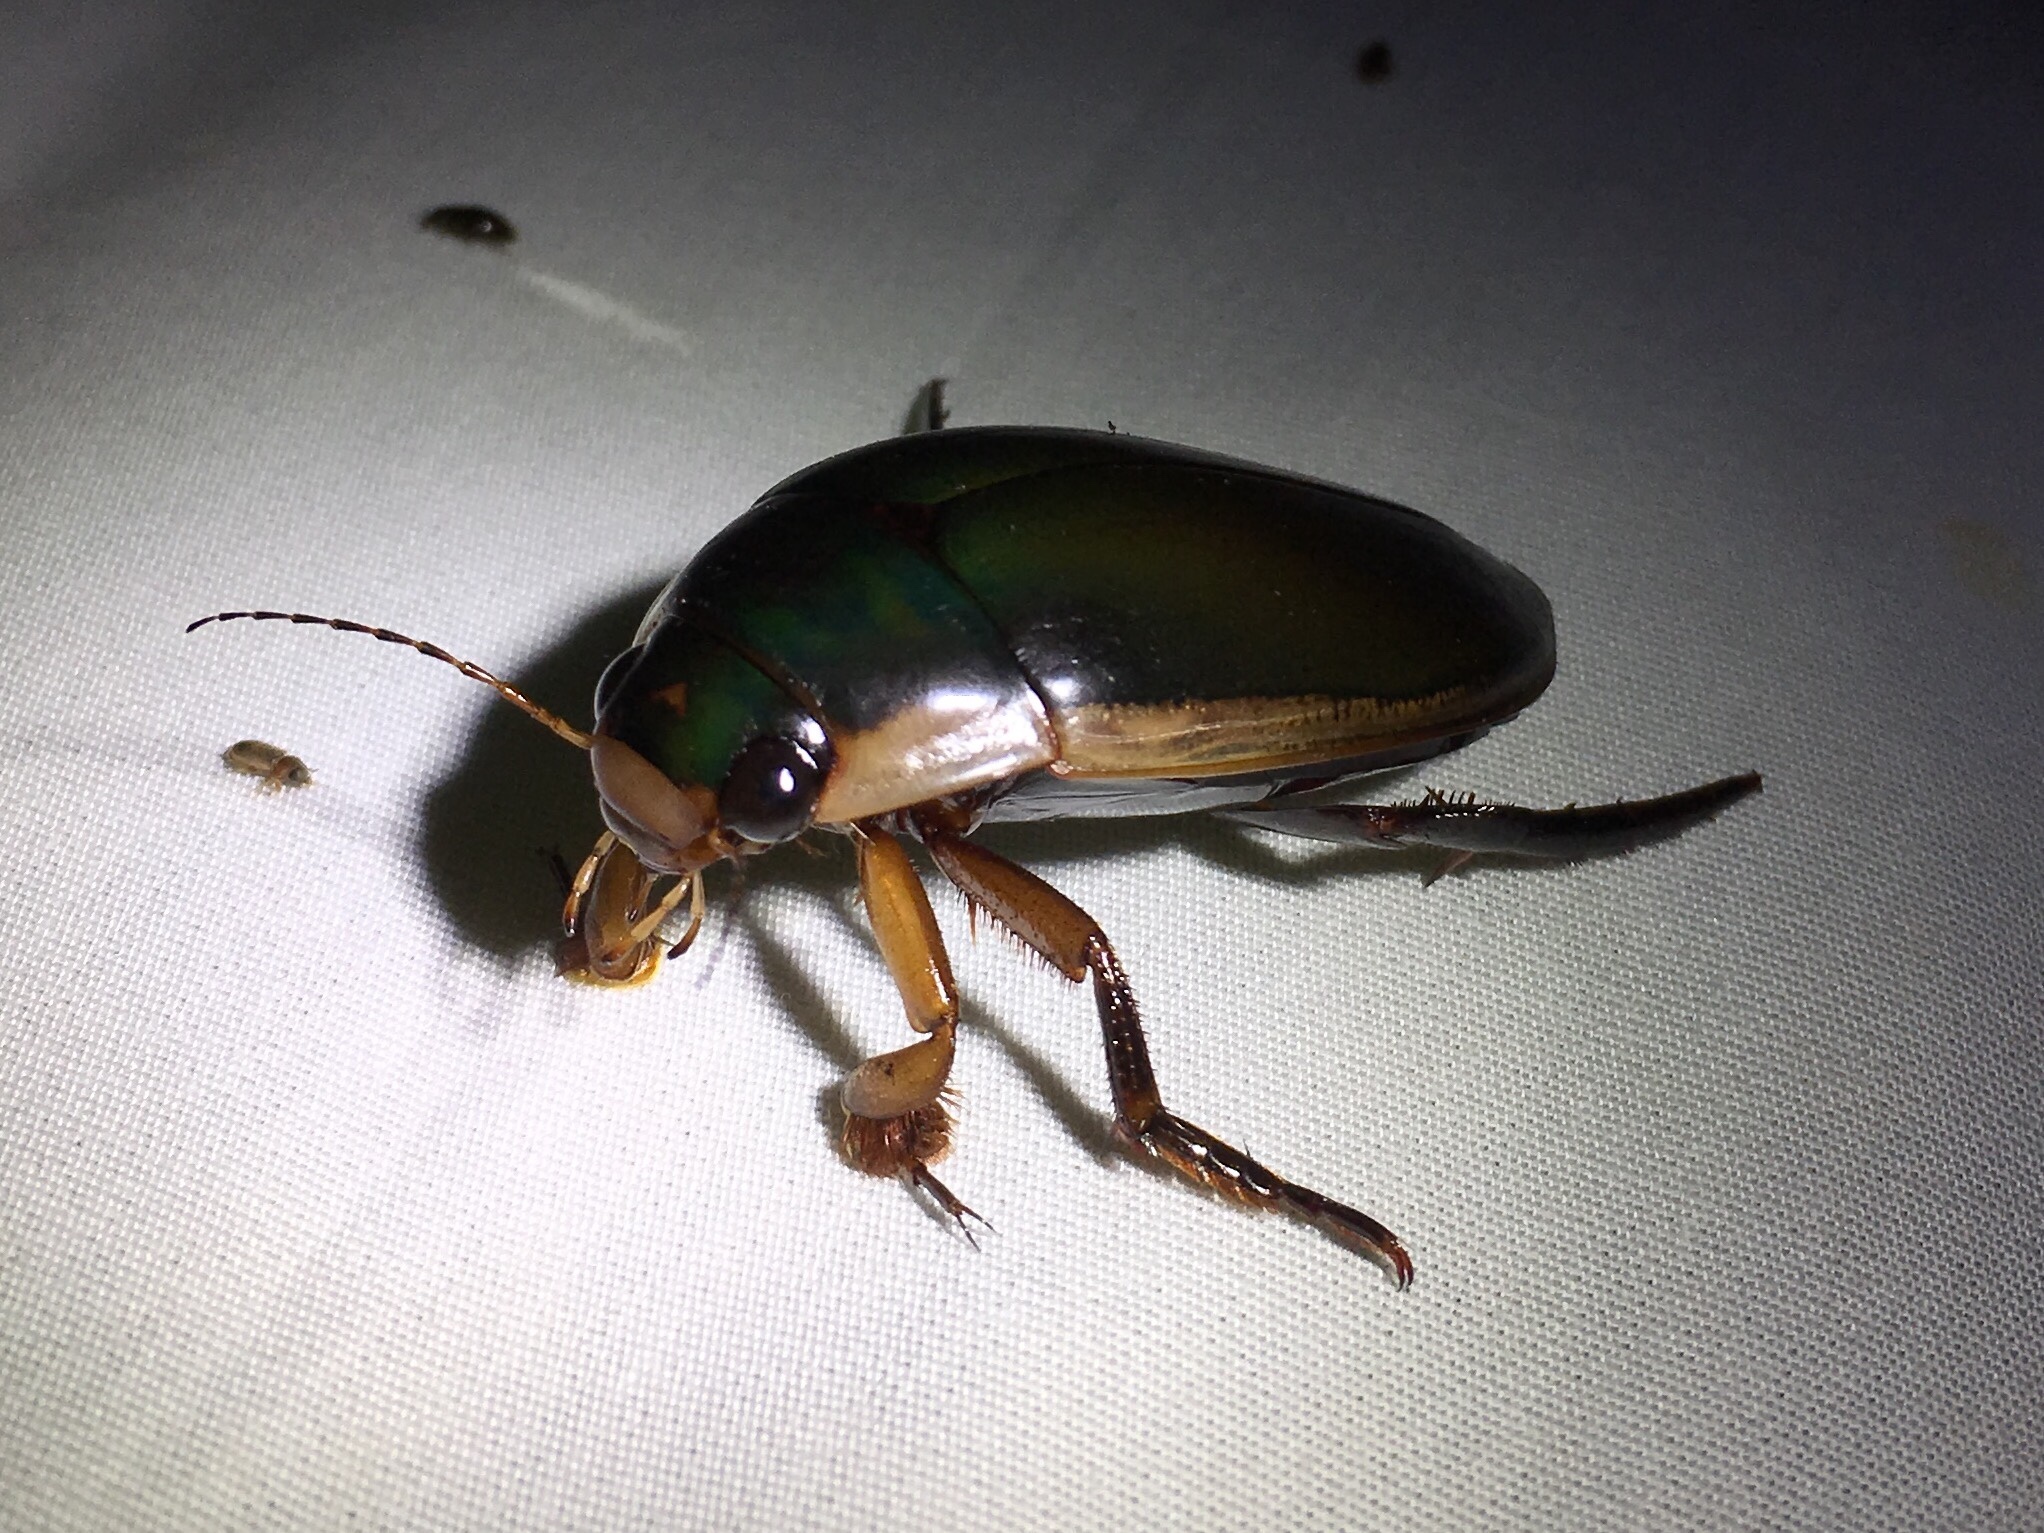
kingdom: Animalia
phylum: Arthropoda
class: Insecta
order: Coleoptera
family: Dytiscidae
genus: Dytiscus
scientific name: Dytiscus
